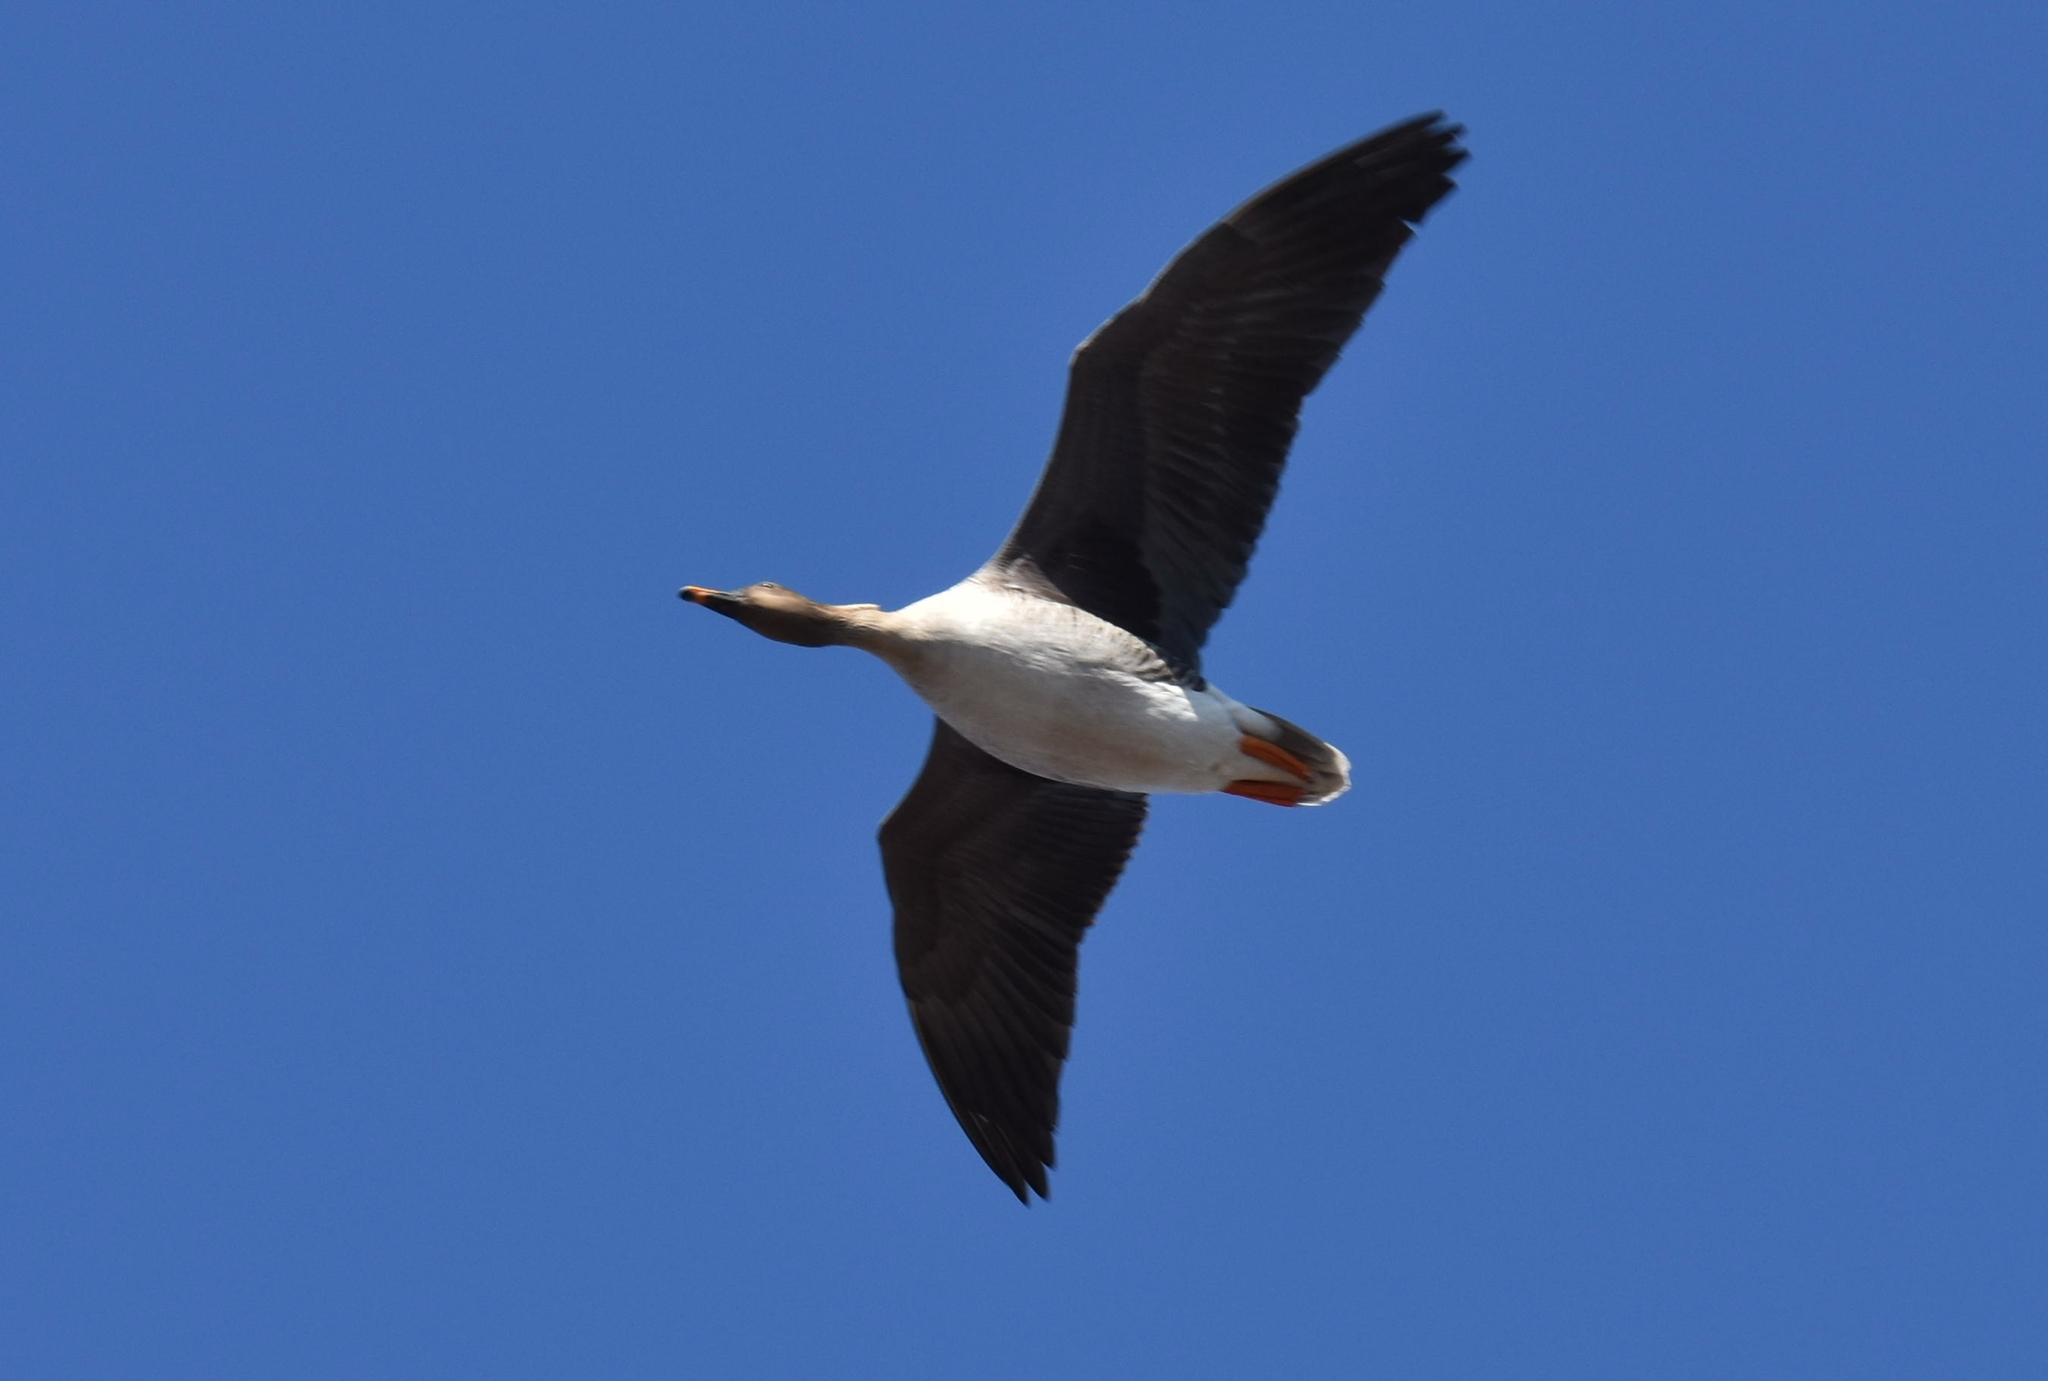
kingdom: Animalia
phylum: Chordata
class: Aves
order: Anseriformes
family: Anatidae
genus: Anser
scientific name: Anser fabalis
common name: Bean goose
